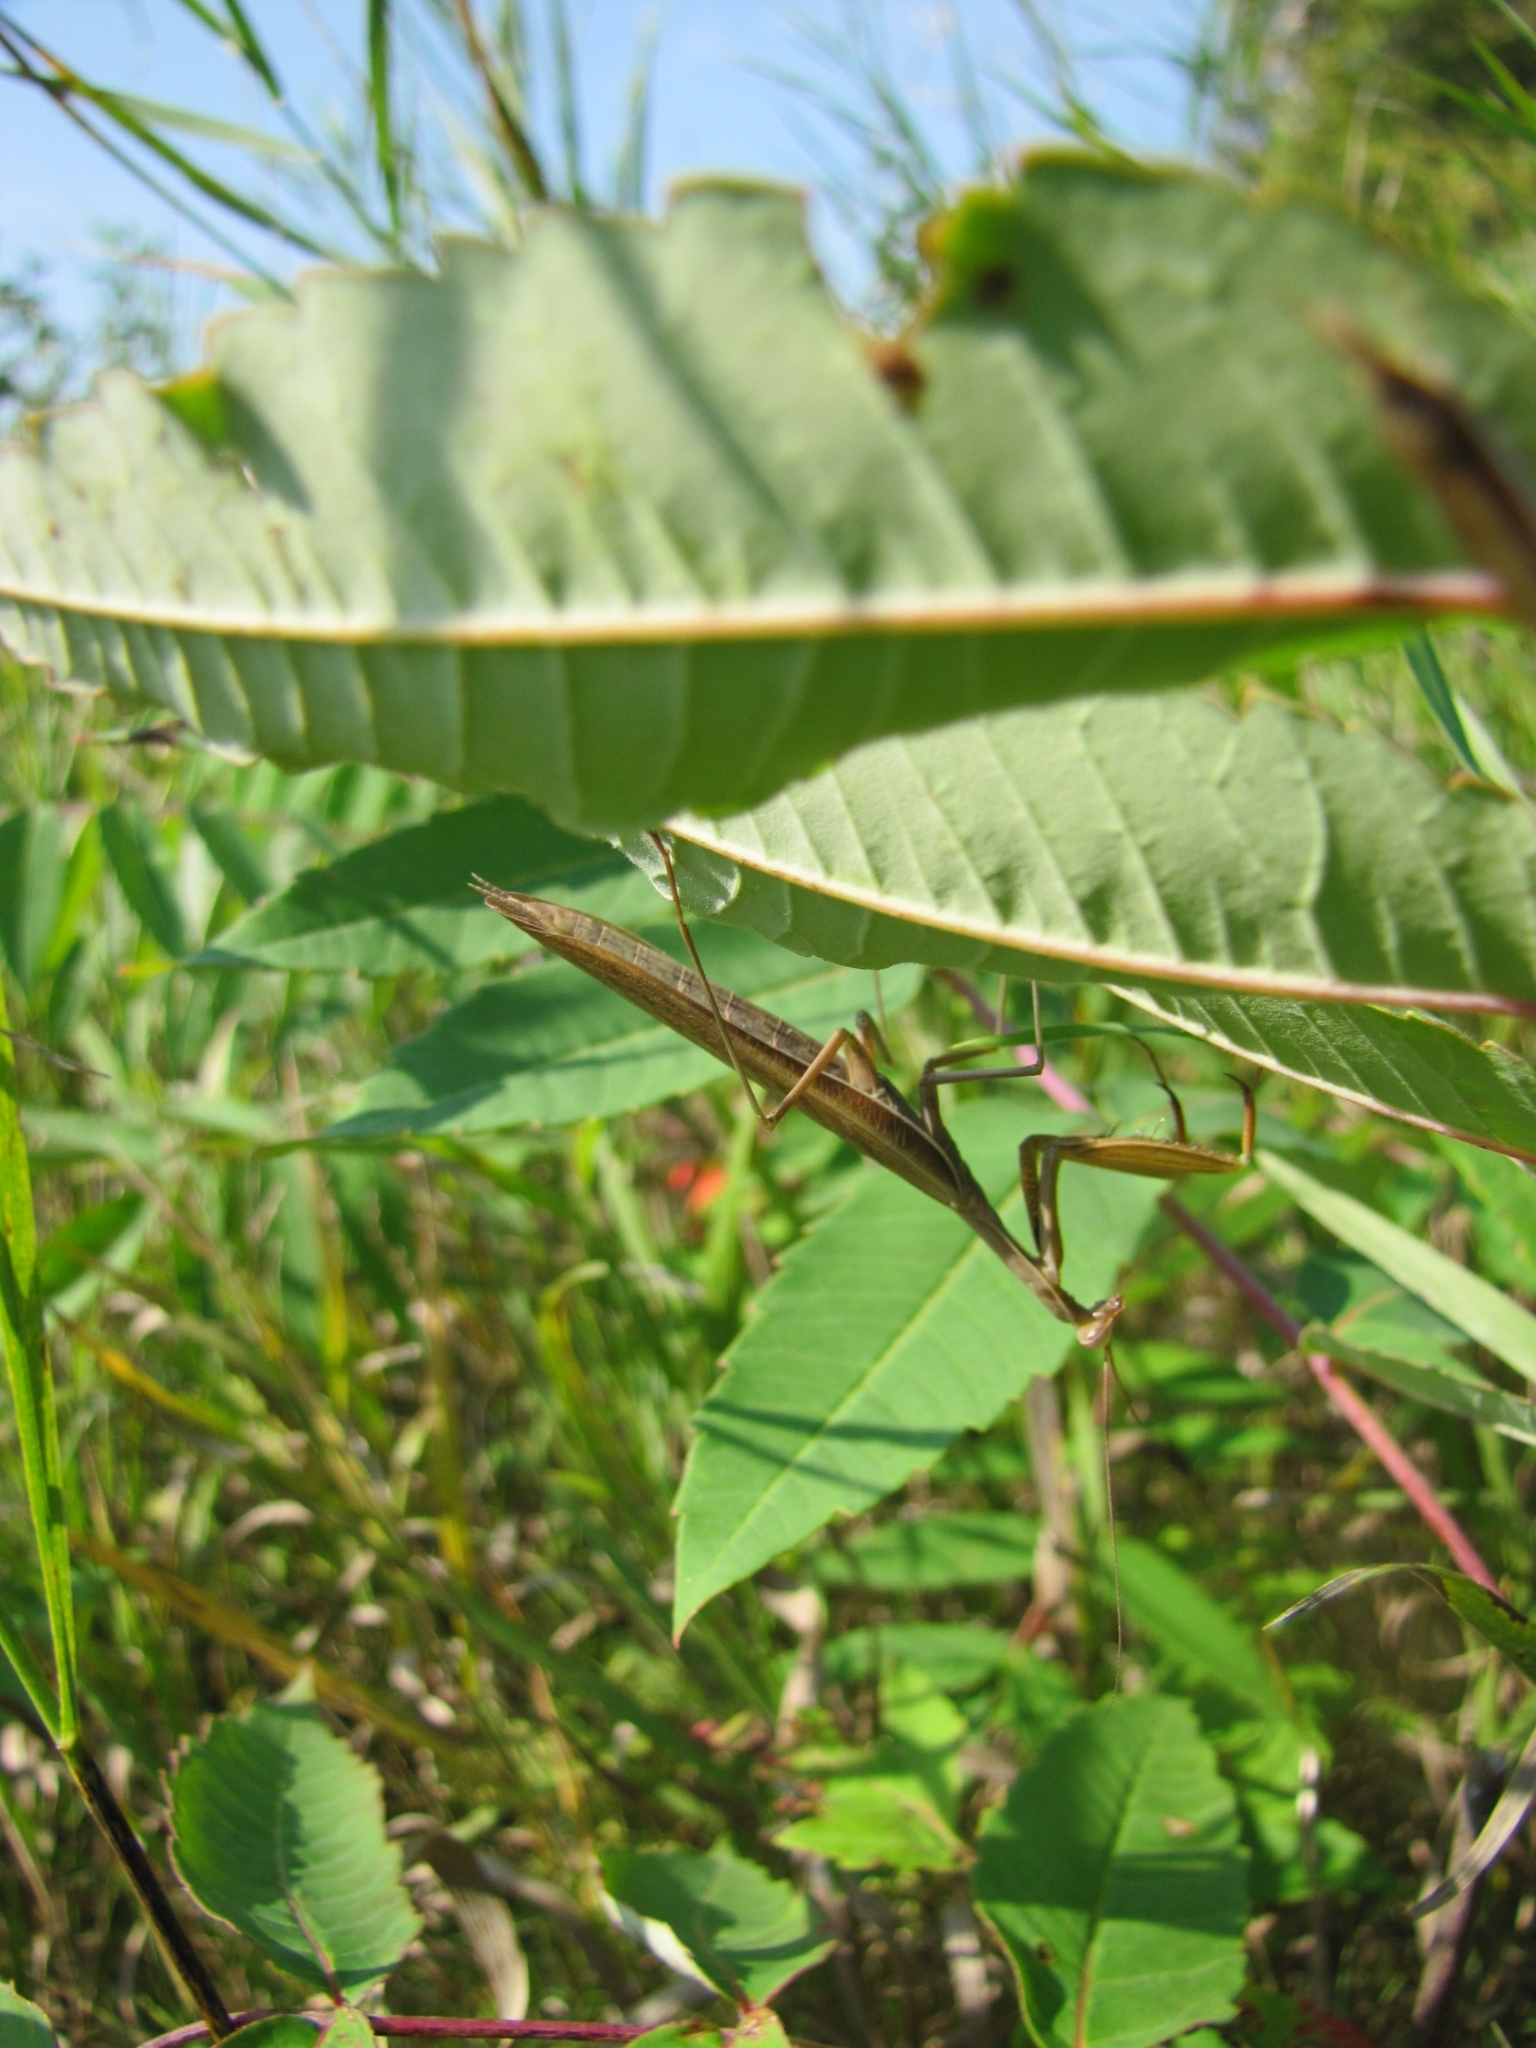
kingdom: Animalia
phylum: Arthropoda
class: Insecta
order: Mantodea
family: Mantidae
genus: Mantis
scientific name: Mantis religiosa
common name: Praying mantis
